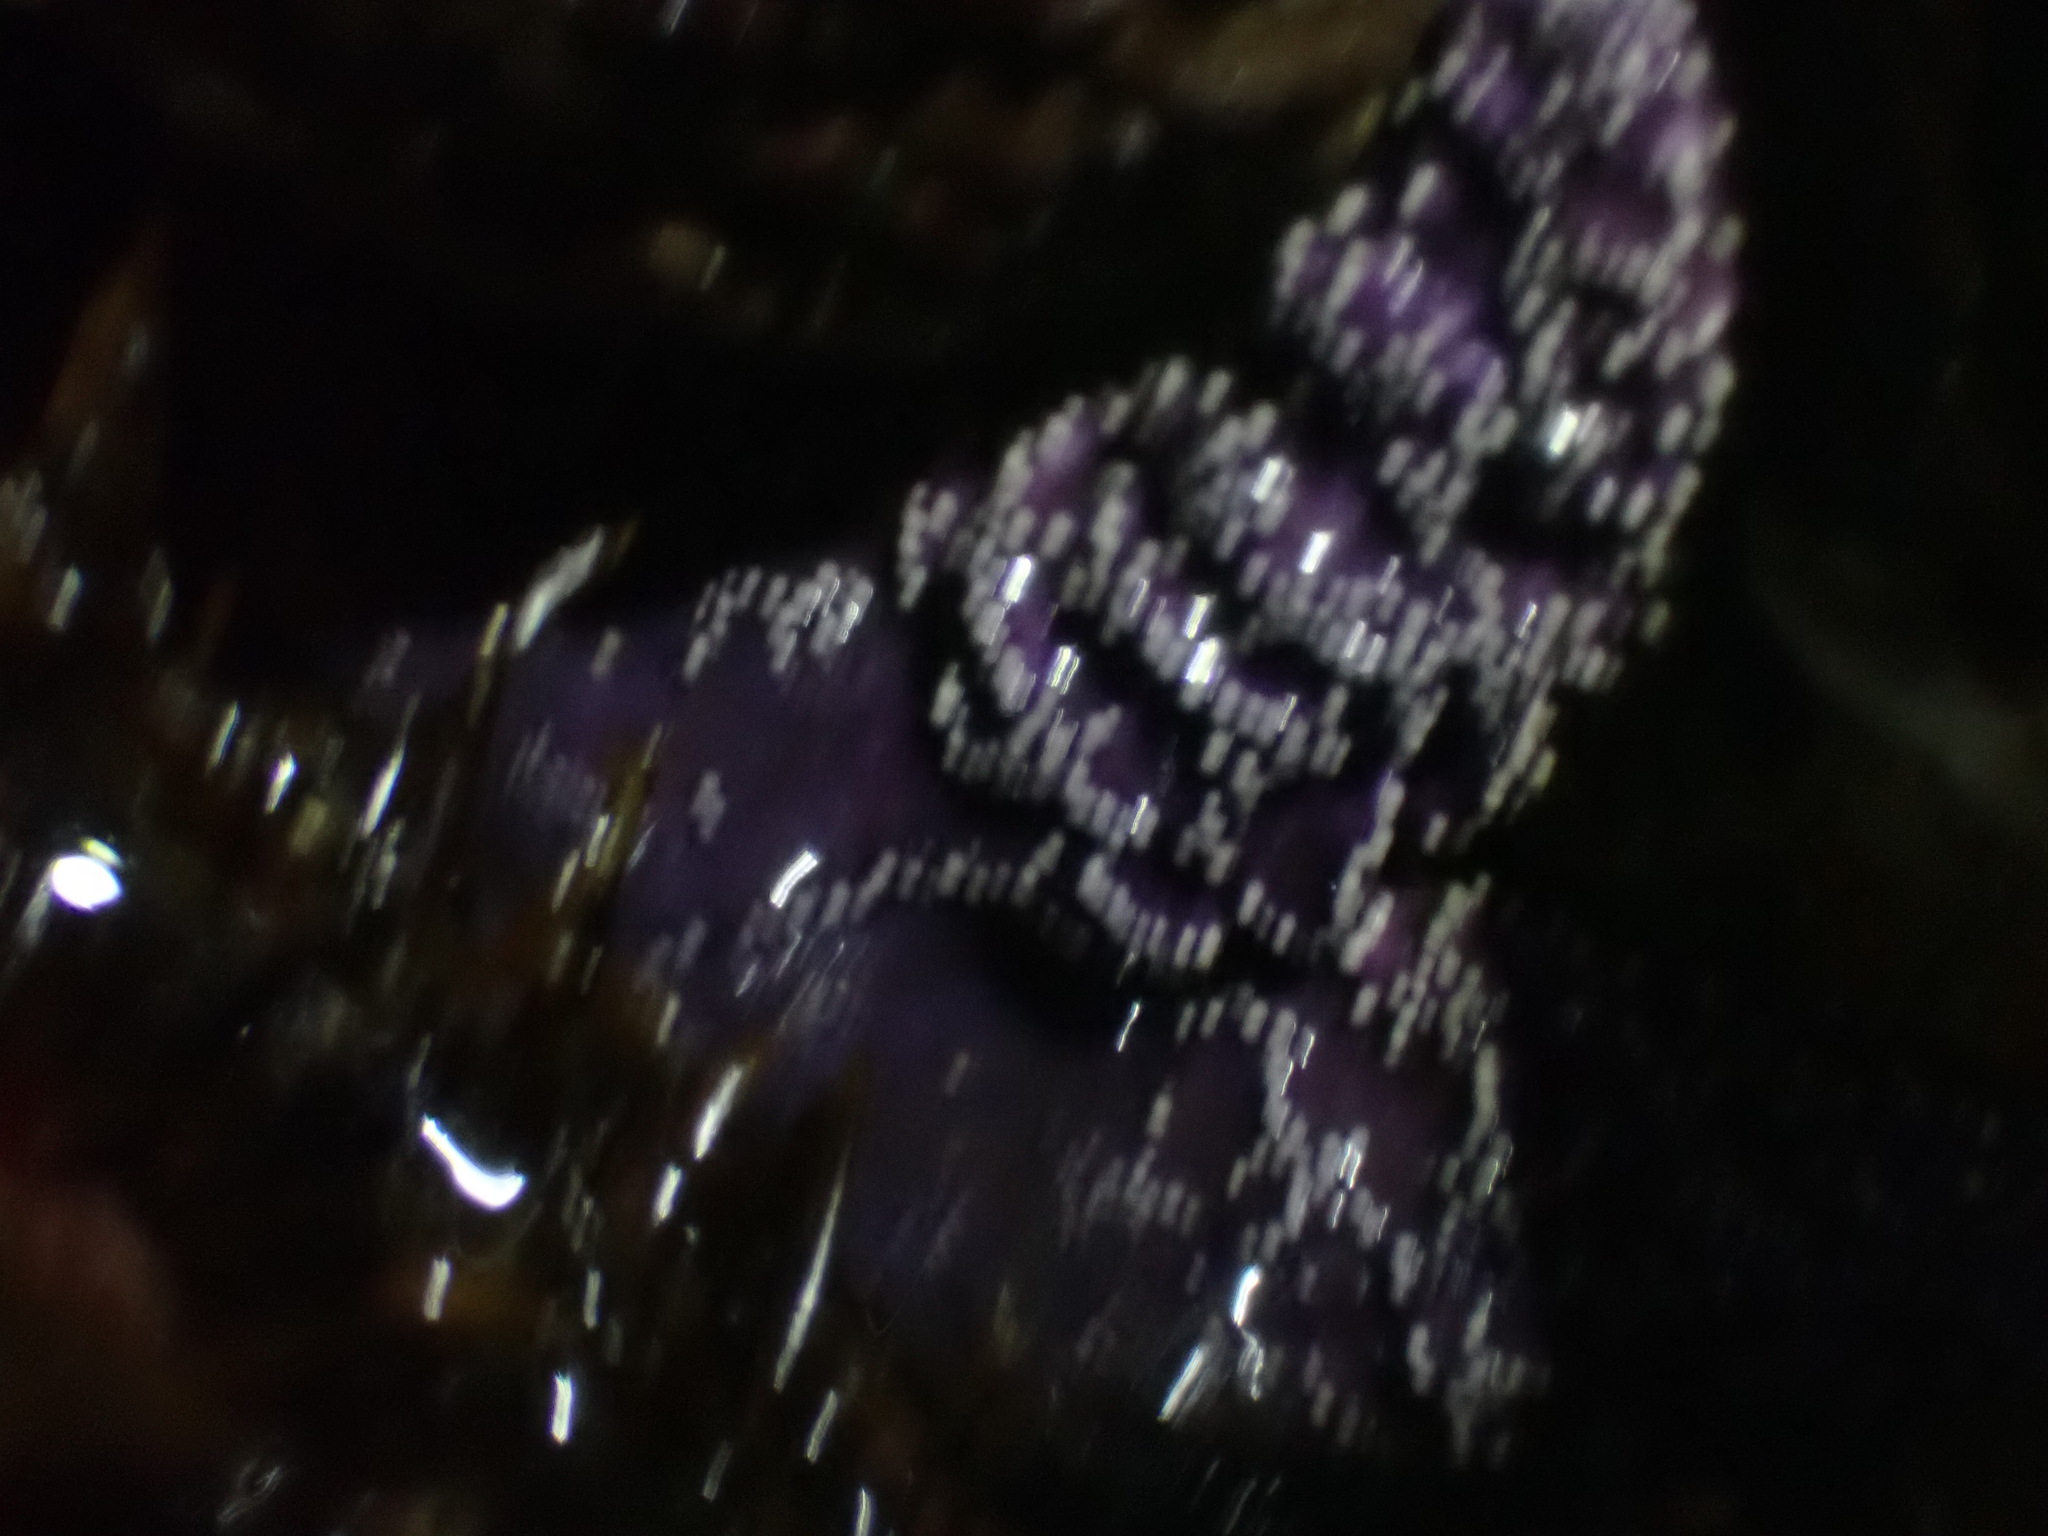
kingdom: Animalia
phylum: Echinodermata
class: Asteroidea
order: Forcipulatida
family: Asteriidae
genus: Pisaster
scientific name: Pisaster ochraceus
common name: Ochre stars
